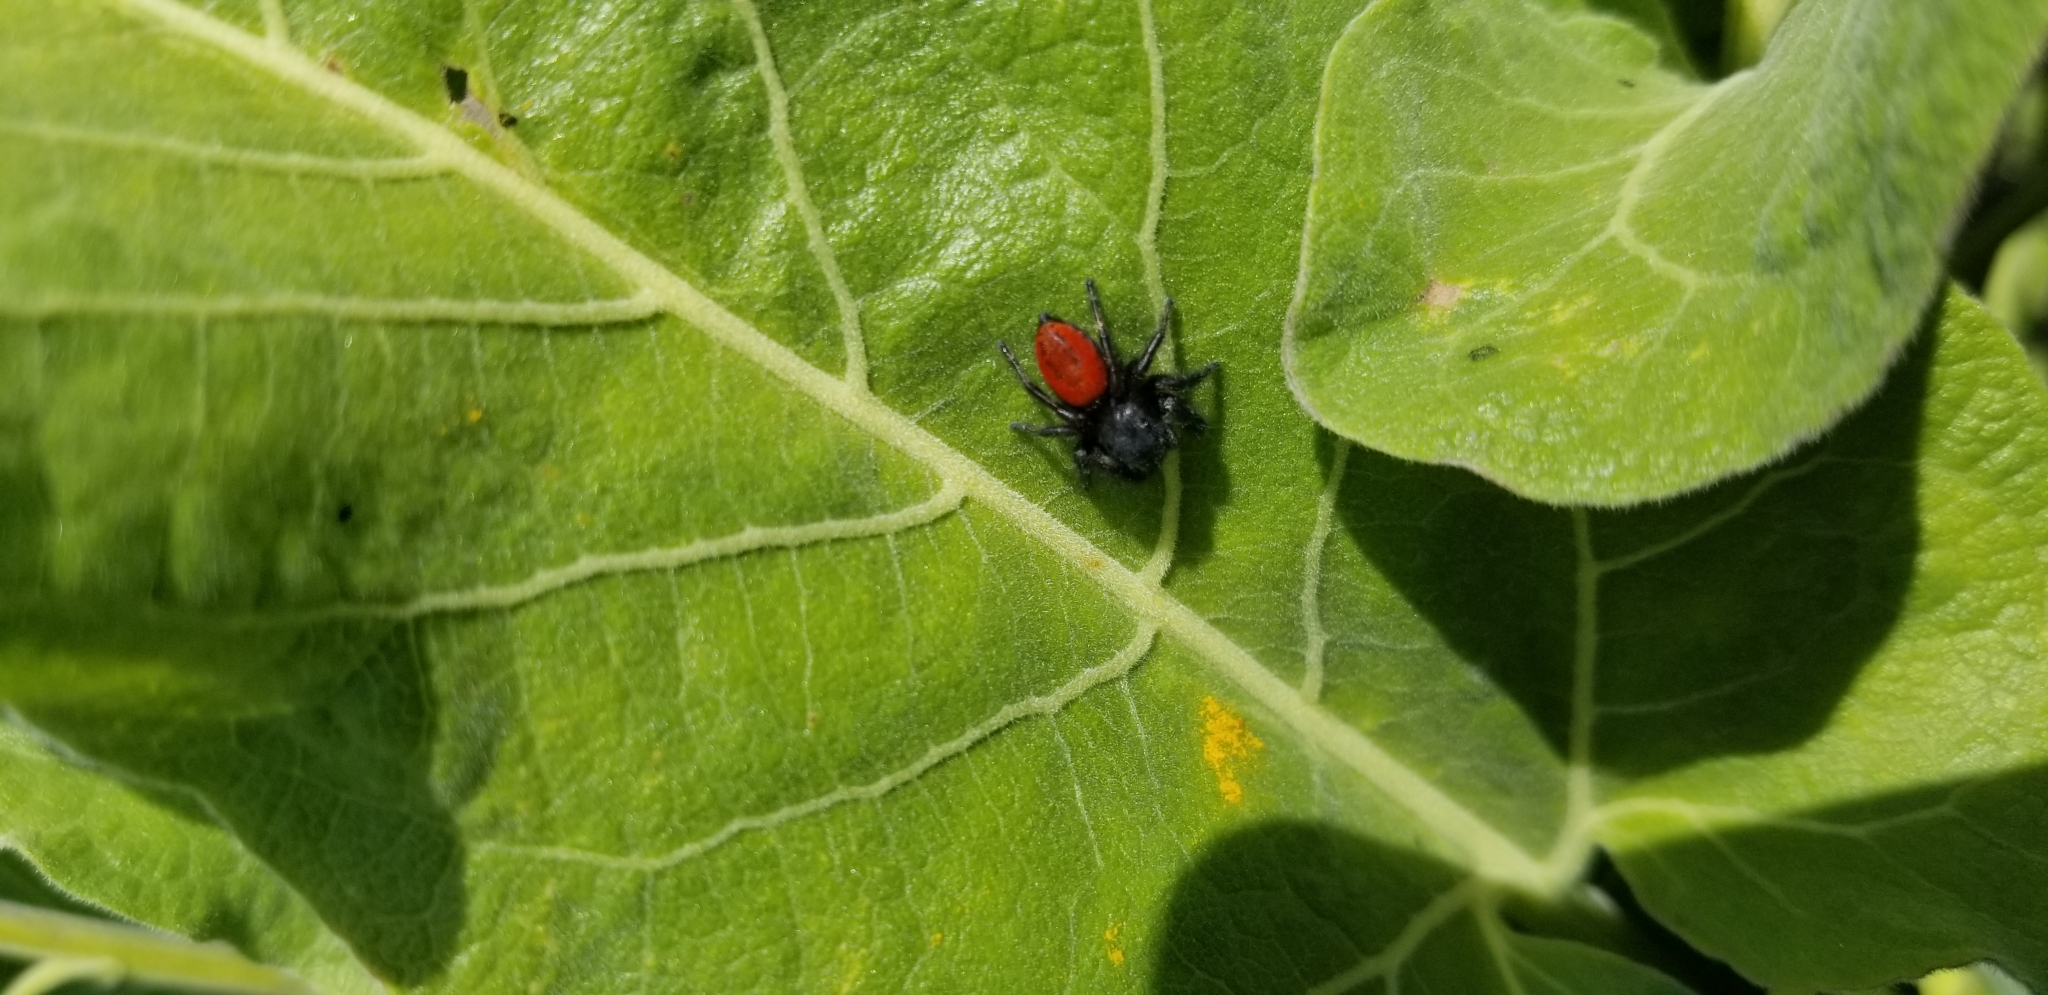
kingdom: Animalia
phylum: Arthropoda
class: Arachnida
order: Araneae
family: Salticidae
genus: Phidippus
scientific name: Phidippus johnsoni
